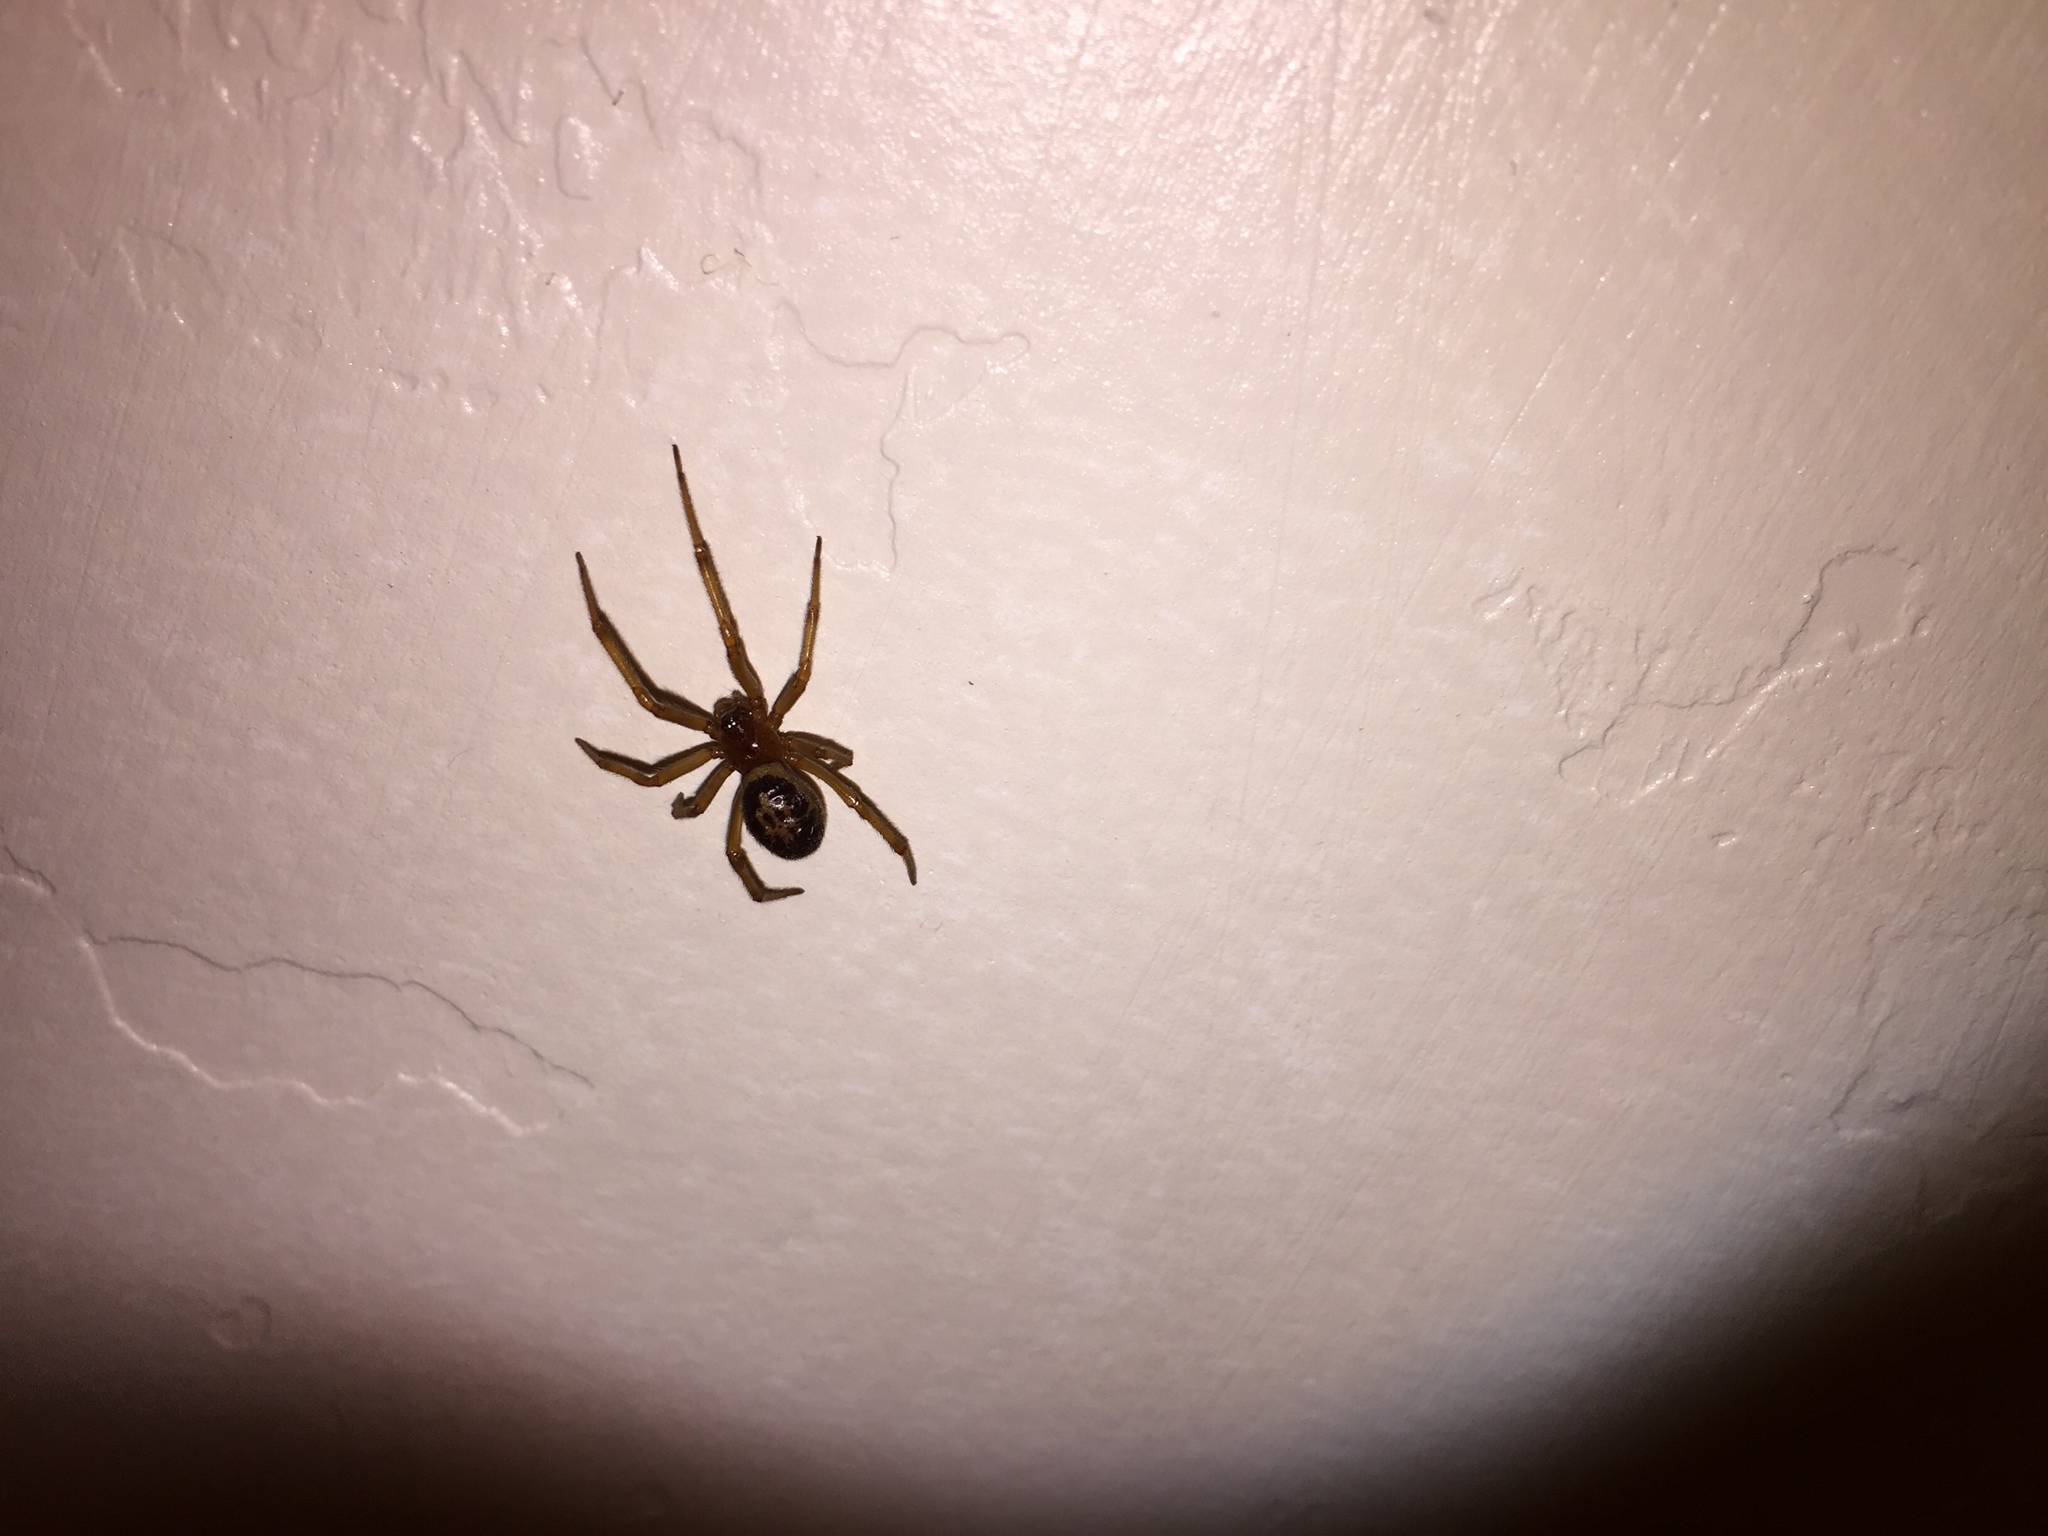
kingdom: Animalia
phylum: Arthropoda
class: Arachnida
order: Araneae
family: Theridiidae
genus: Steatoda
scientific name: Steatoda nobilis
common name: Cobweb weaver
